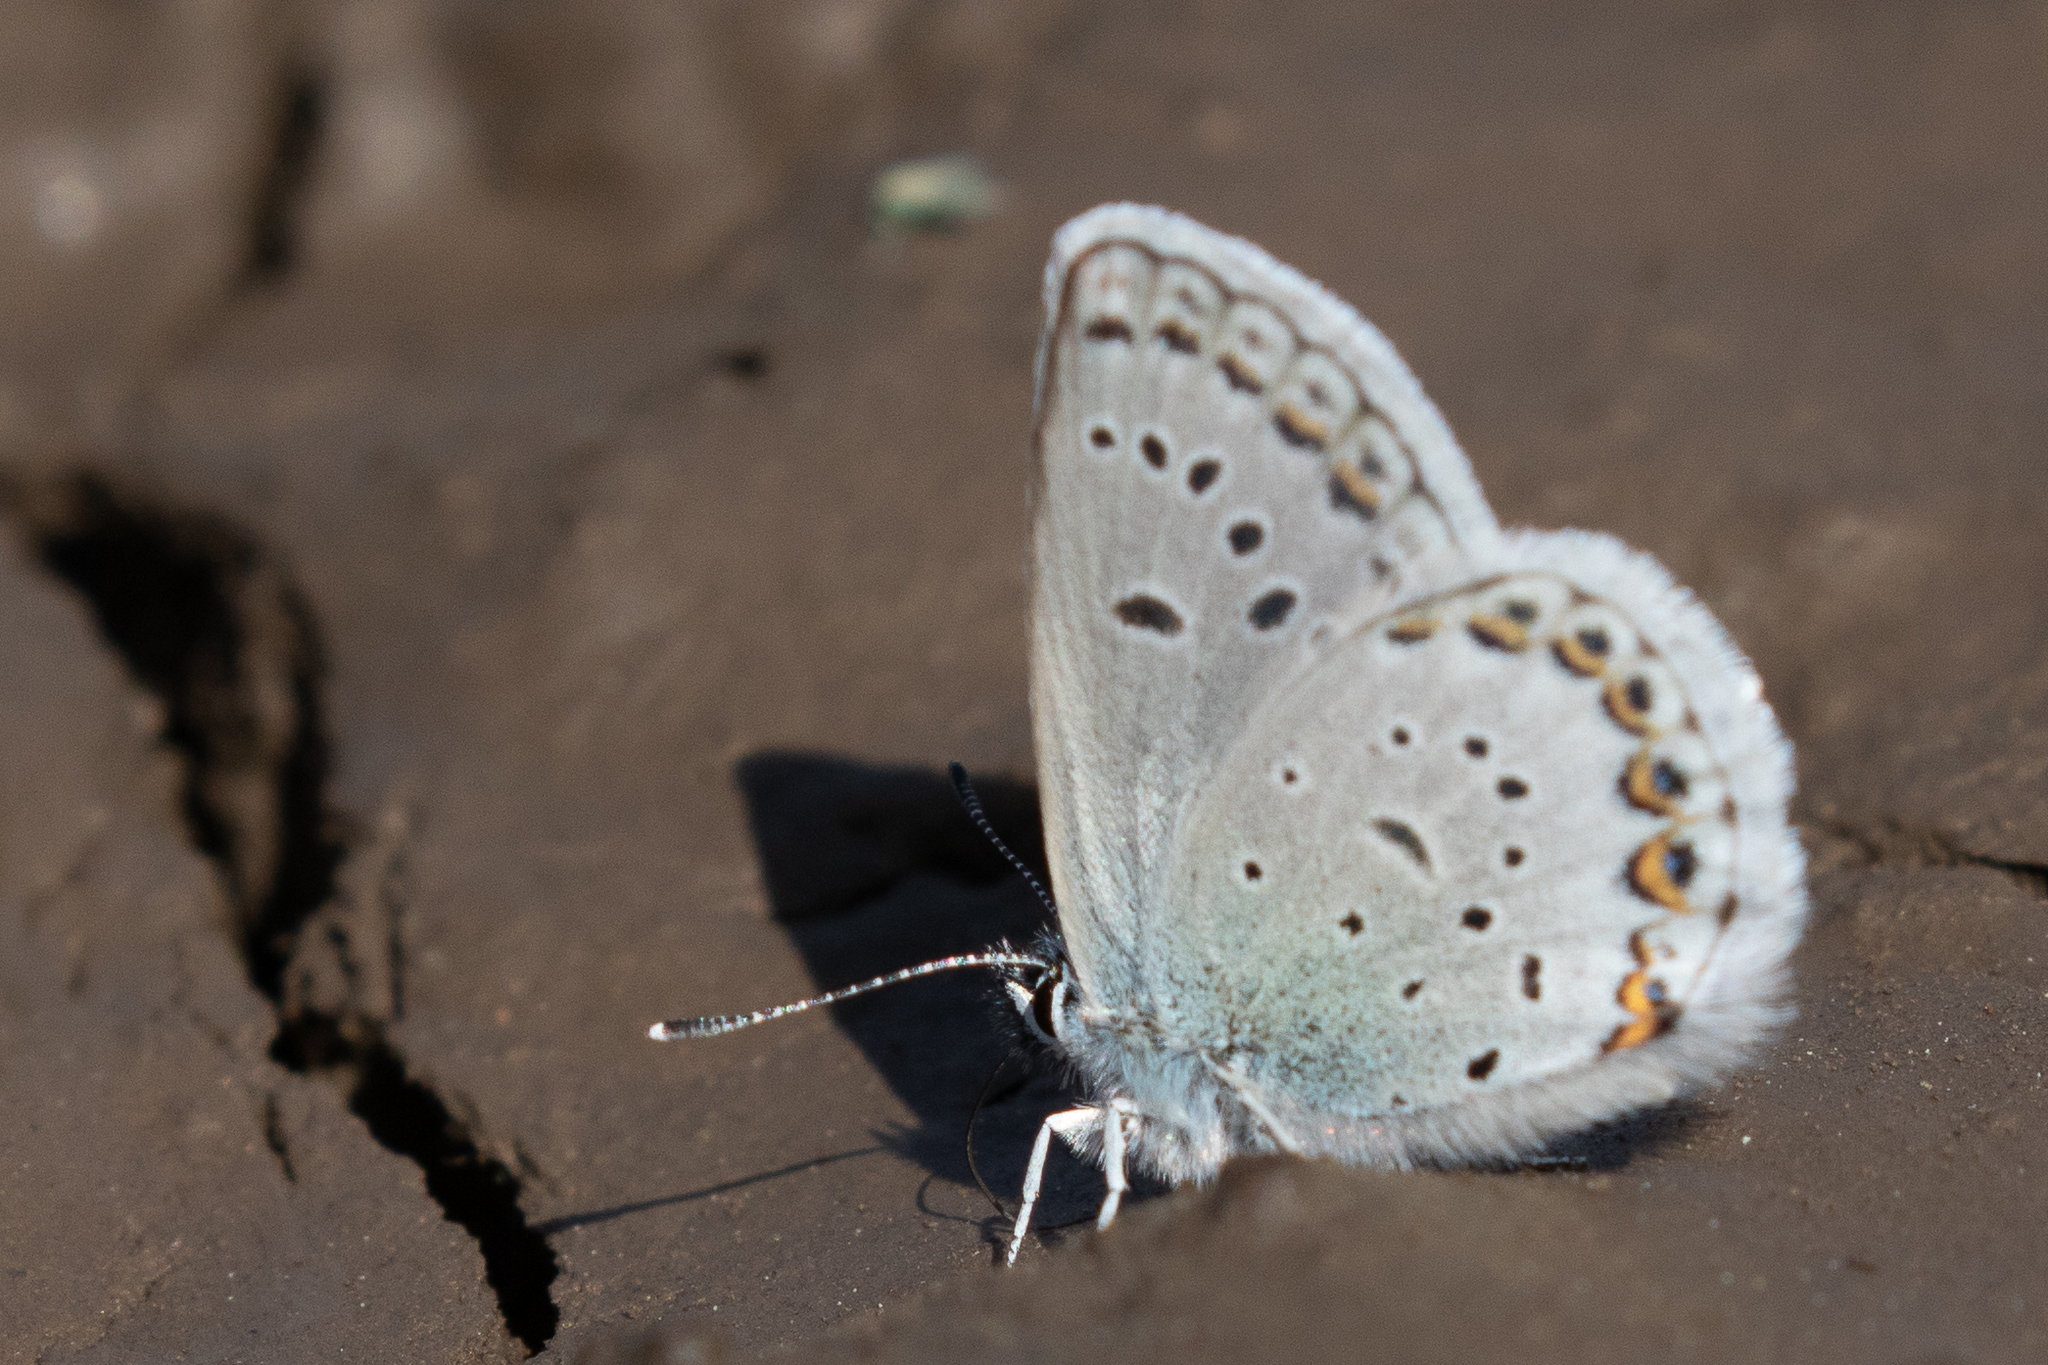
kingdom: Animalia
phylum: Arthropoda
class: Insecta
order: Lepidoptera
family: Lycaenidae
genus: Lycaeides
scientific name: Lycaeides idas
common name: Northern blue
